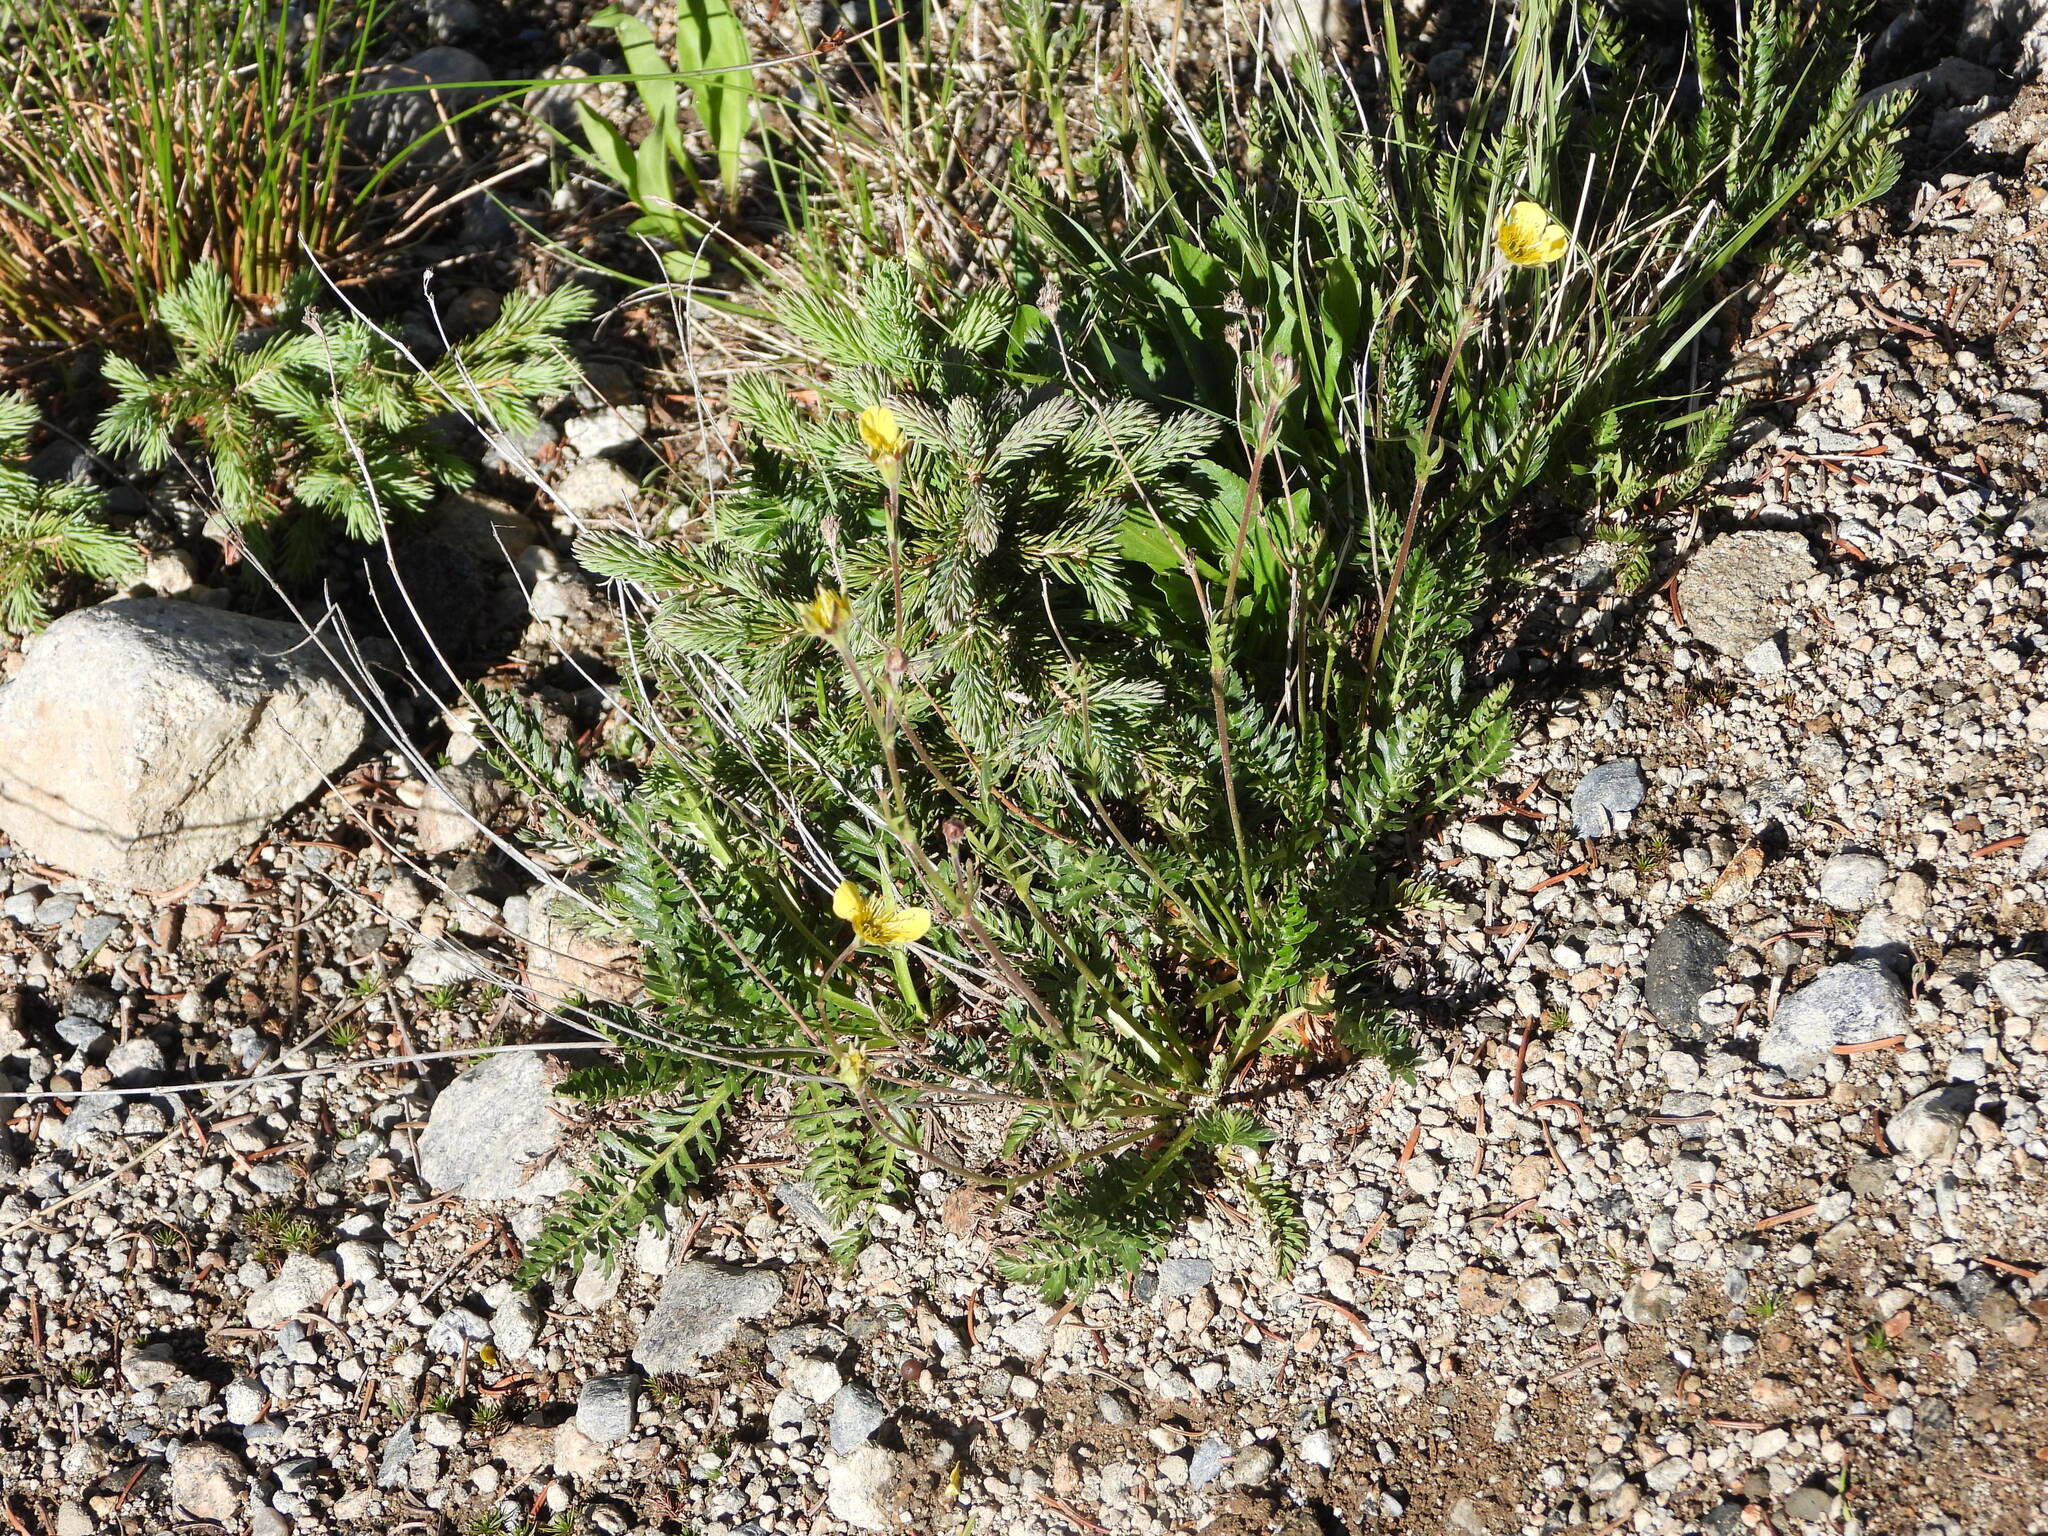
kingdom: Plantae
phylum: Tracheophyta
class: Magnoliopsida
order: Rosales
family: Rosaceae
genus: Geum
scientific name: Geum rossii
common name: Alpine avens
